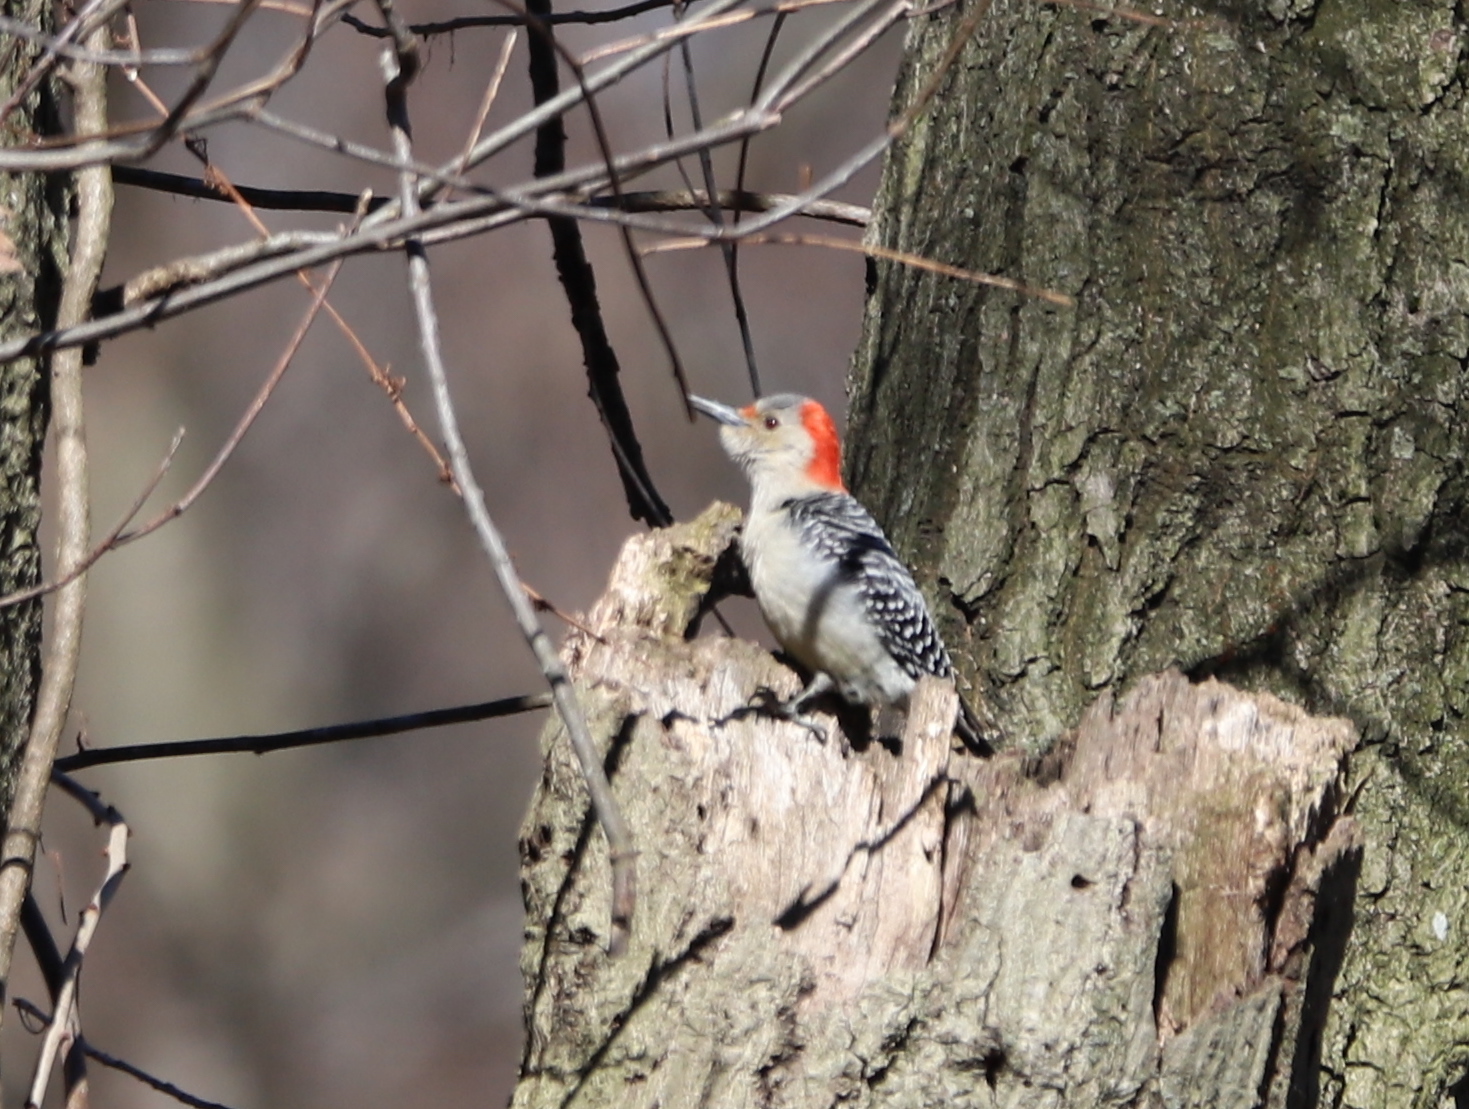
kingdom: Animalia
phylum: Chordata
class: Aves
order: Piciformes
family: Picidae
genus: Melanerpes
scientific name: Melanerpes carolinus
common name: Red-bellied woodpecker
